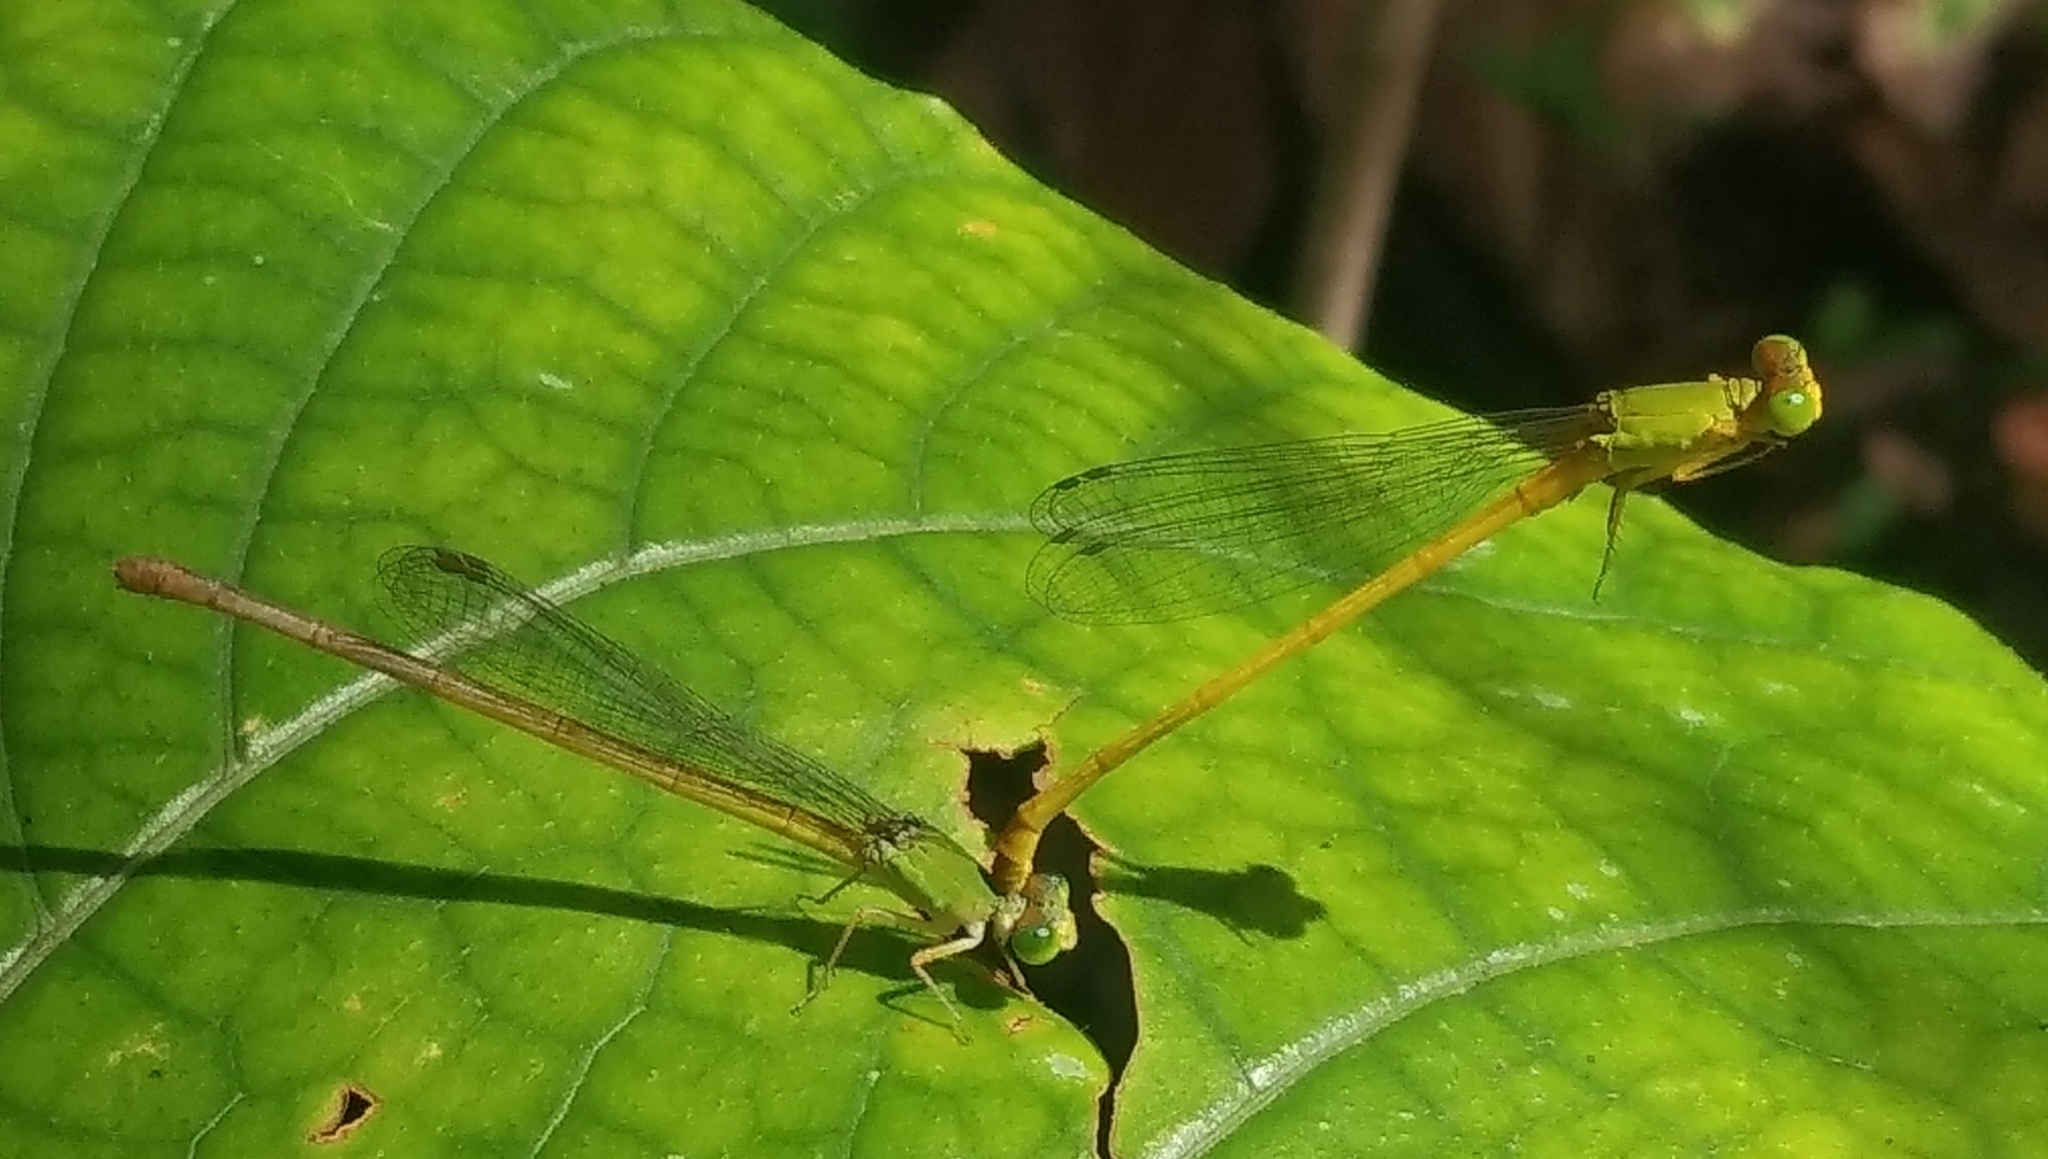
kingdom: Animalia
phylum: Arthropoda
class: Insecta
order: Odonata
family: Coenagrionidae
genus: Ceriagrion
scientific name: Ceriagrion coromandelianum
